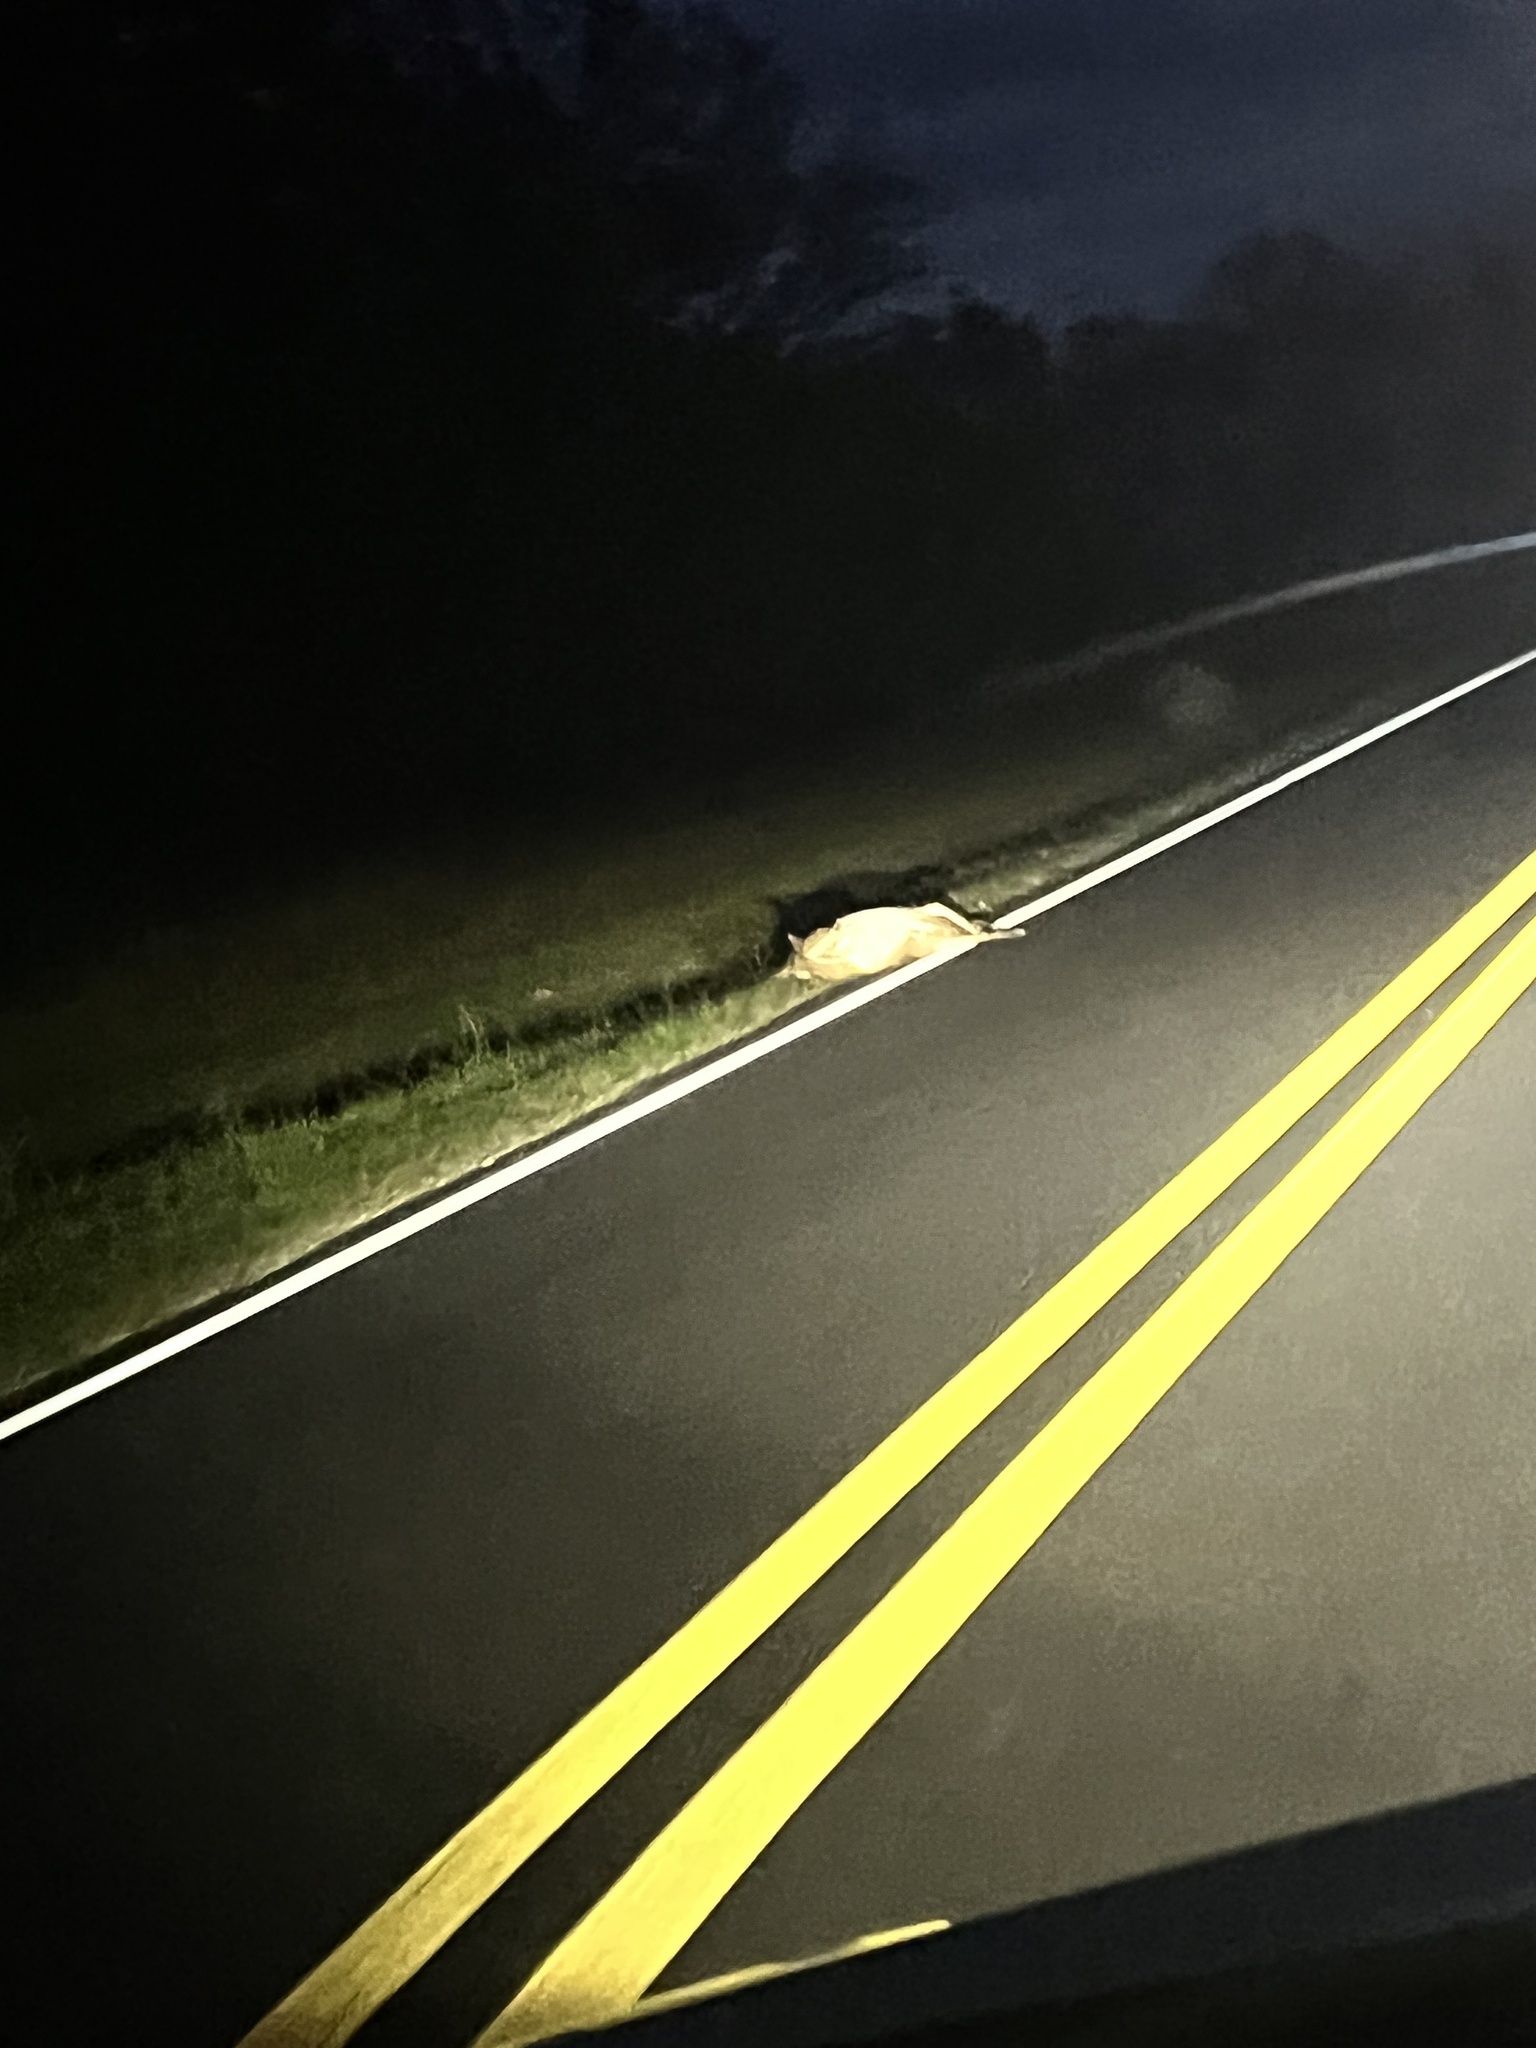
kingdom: Animalia
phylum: Chordata
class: Mammalia
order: Artiodactyla
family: Cervidae
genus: Odocoileus
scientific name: Odocoileus virginianus
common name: White-tailed deer
